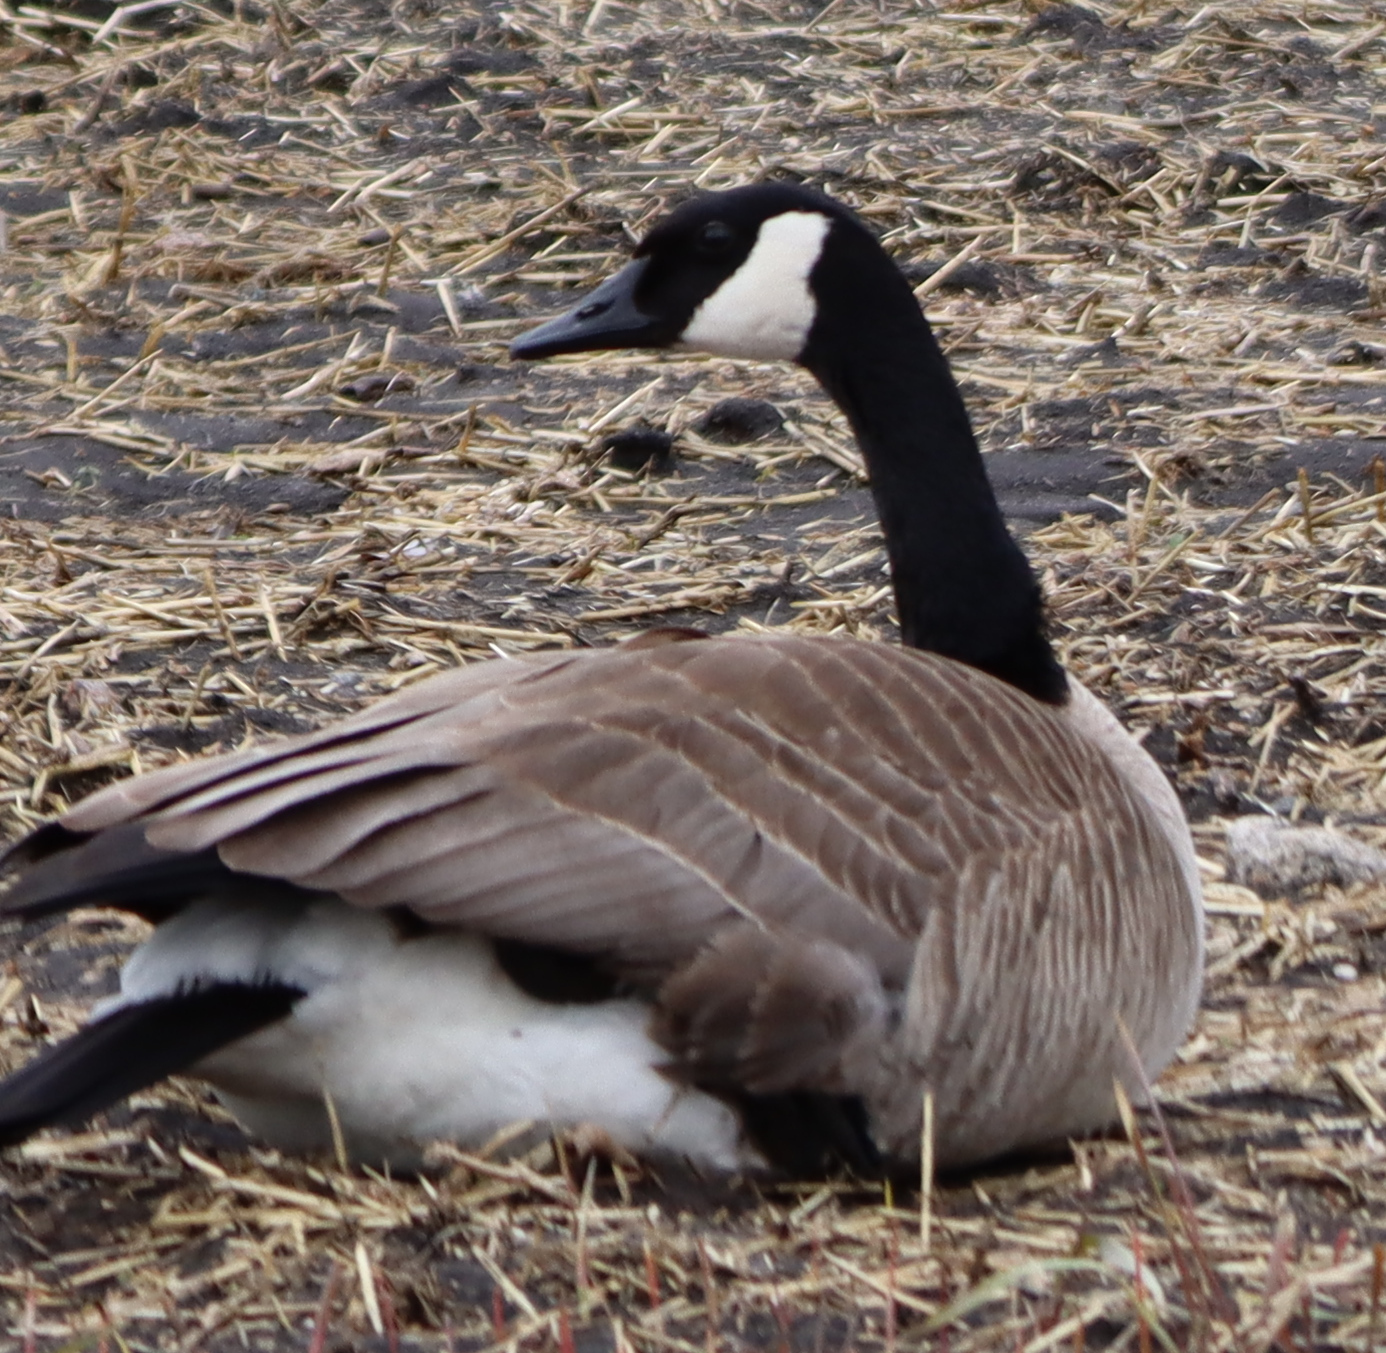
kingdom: Animalia
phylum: Chordata
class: Aves
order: Anseriformes
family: Anatidae
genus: Branta
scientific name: Branta canadensis
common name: Canada goose
